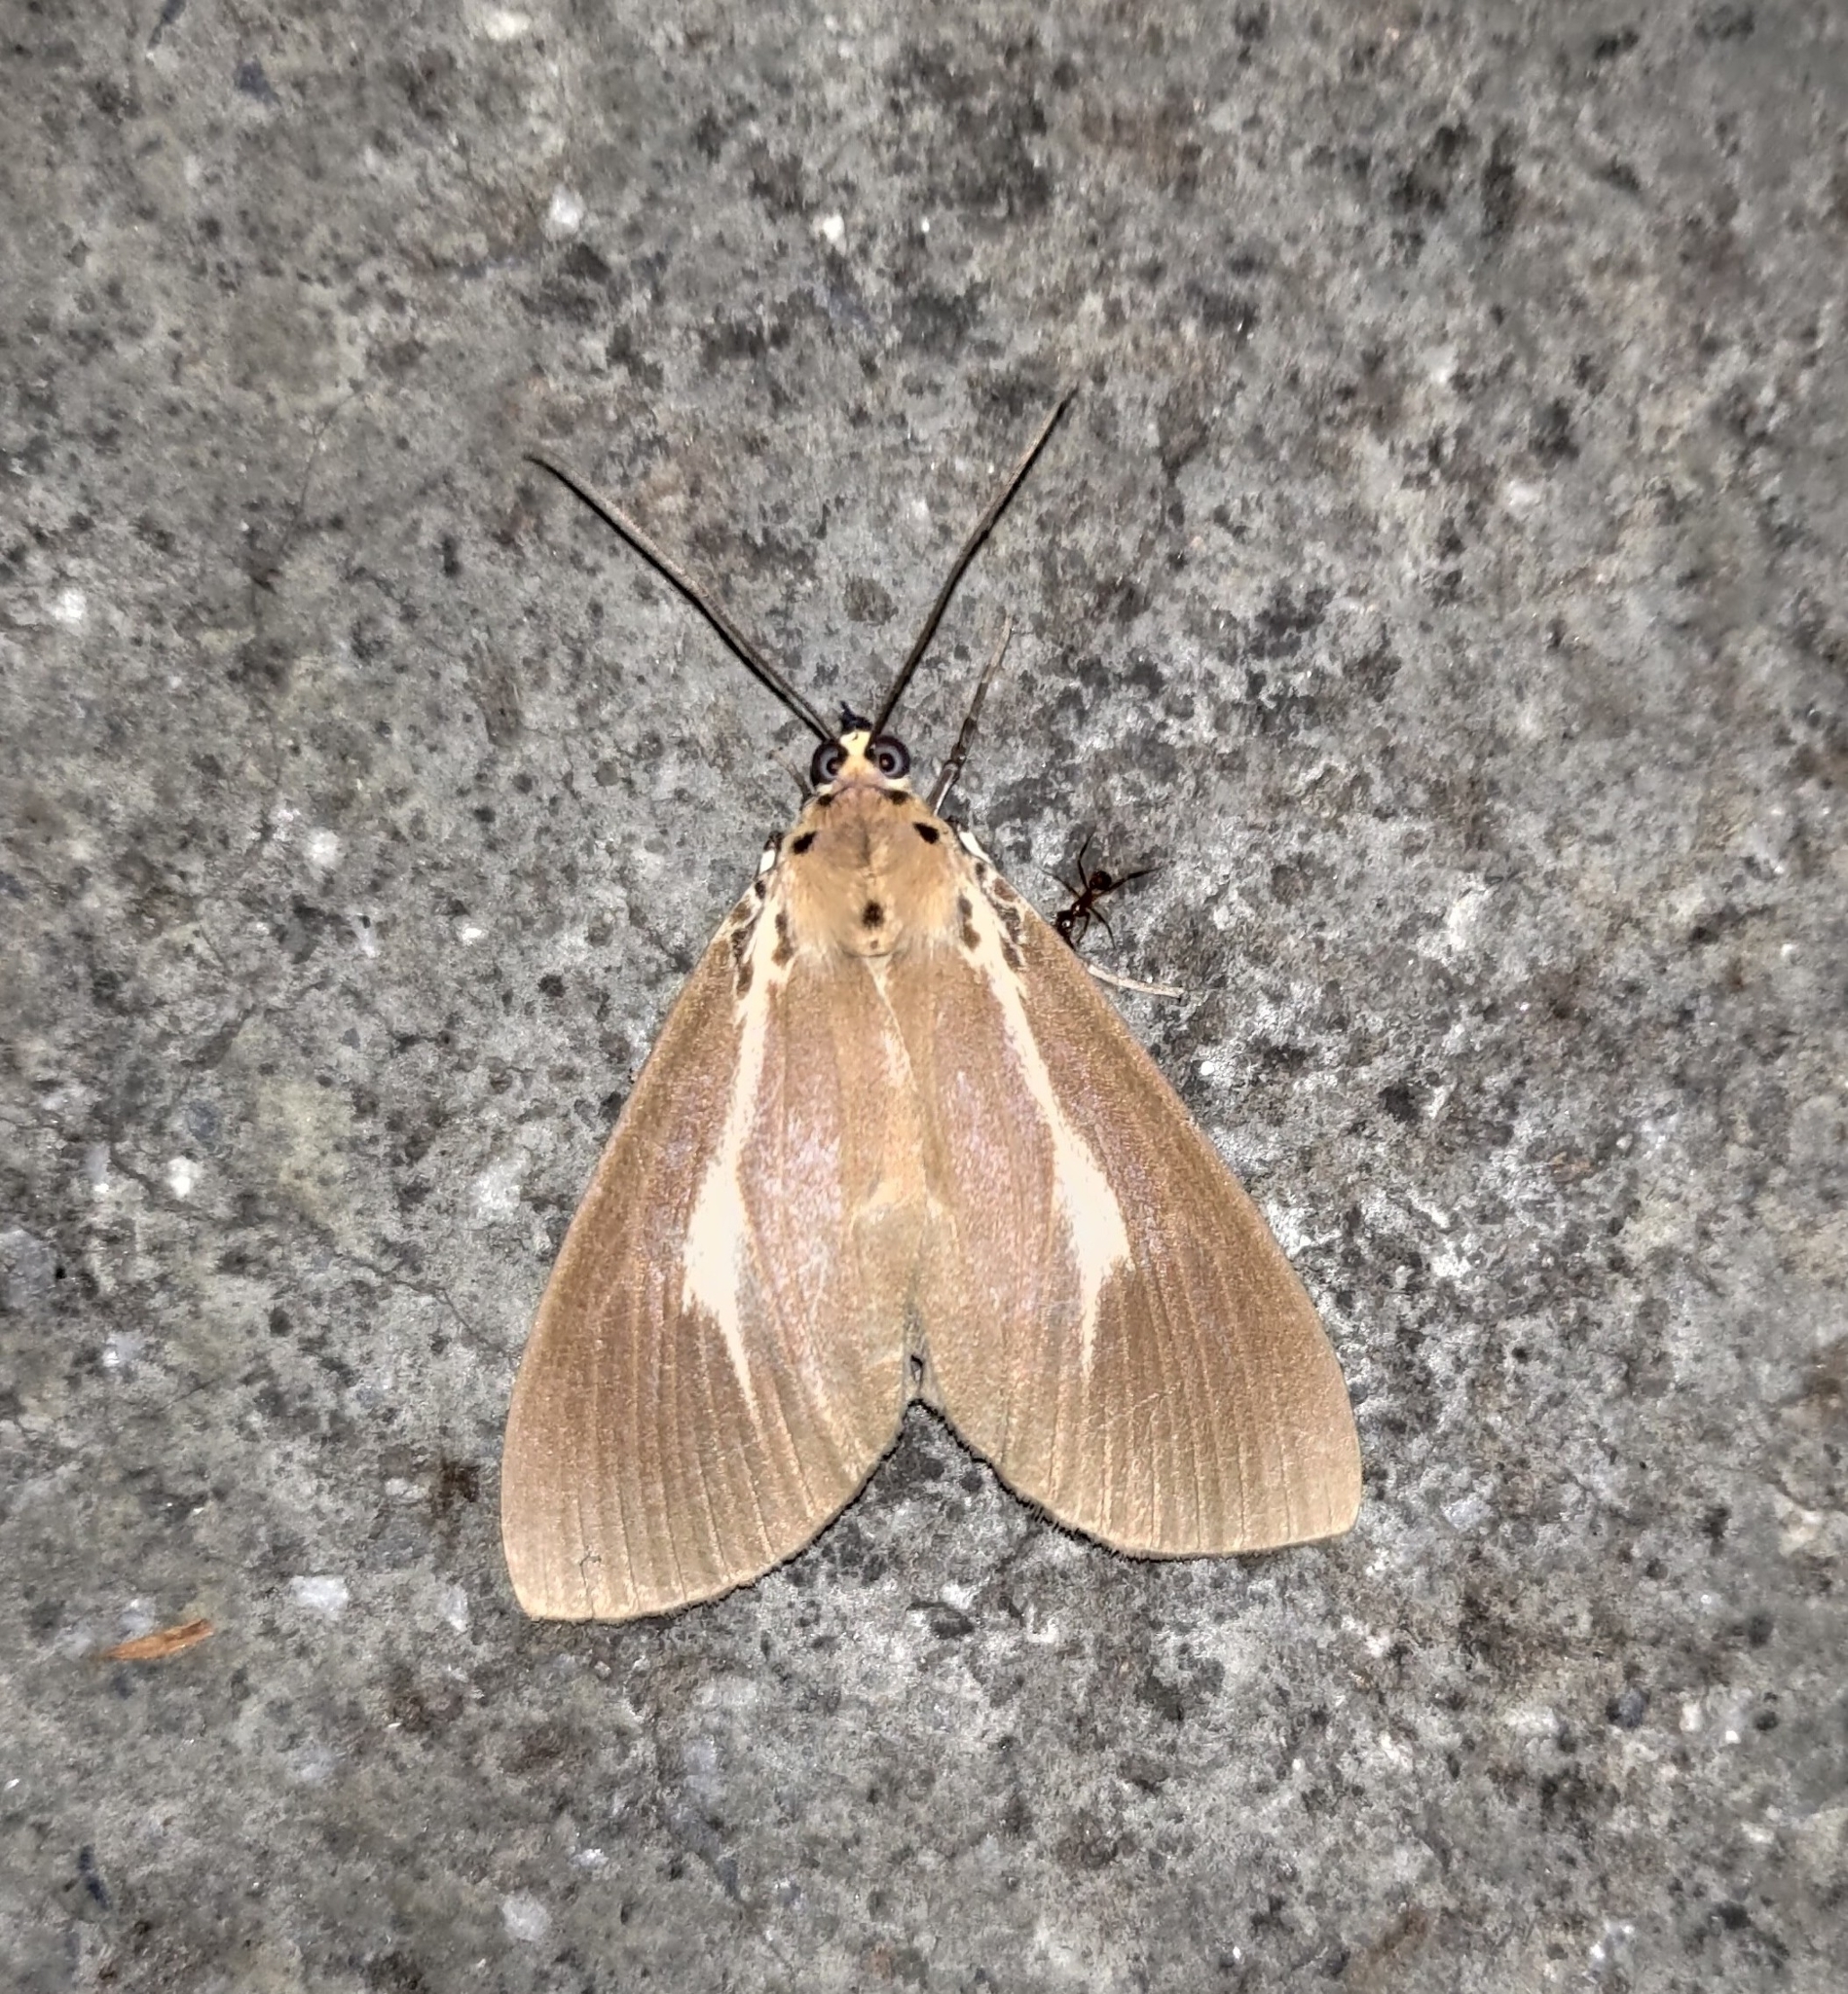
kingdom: Animalia
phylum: Arthropoda
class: Insecta
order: Lepidoptera
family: Erebidae
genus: Asota
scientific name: Asota heliconia
